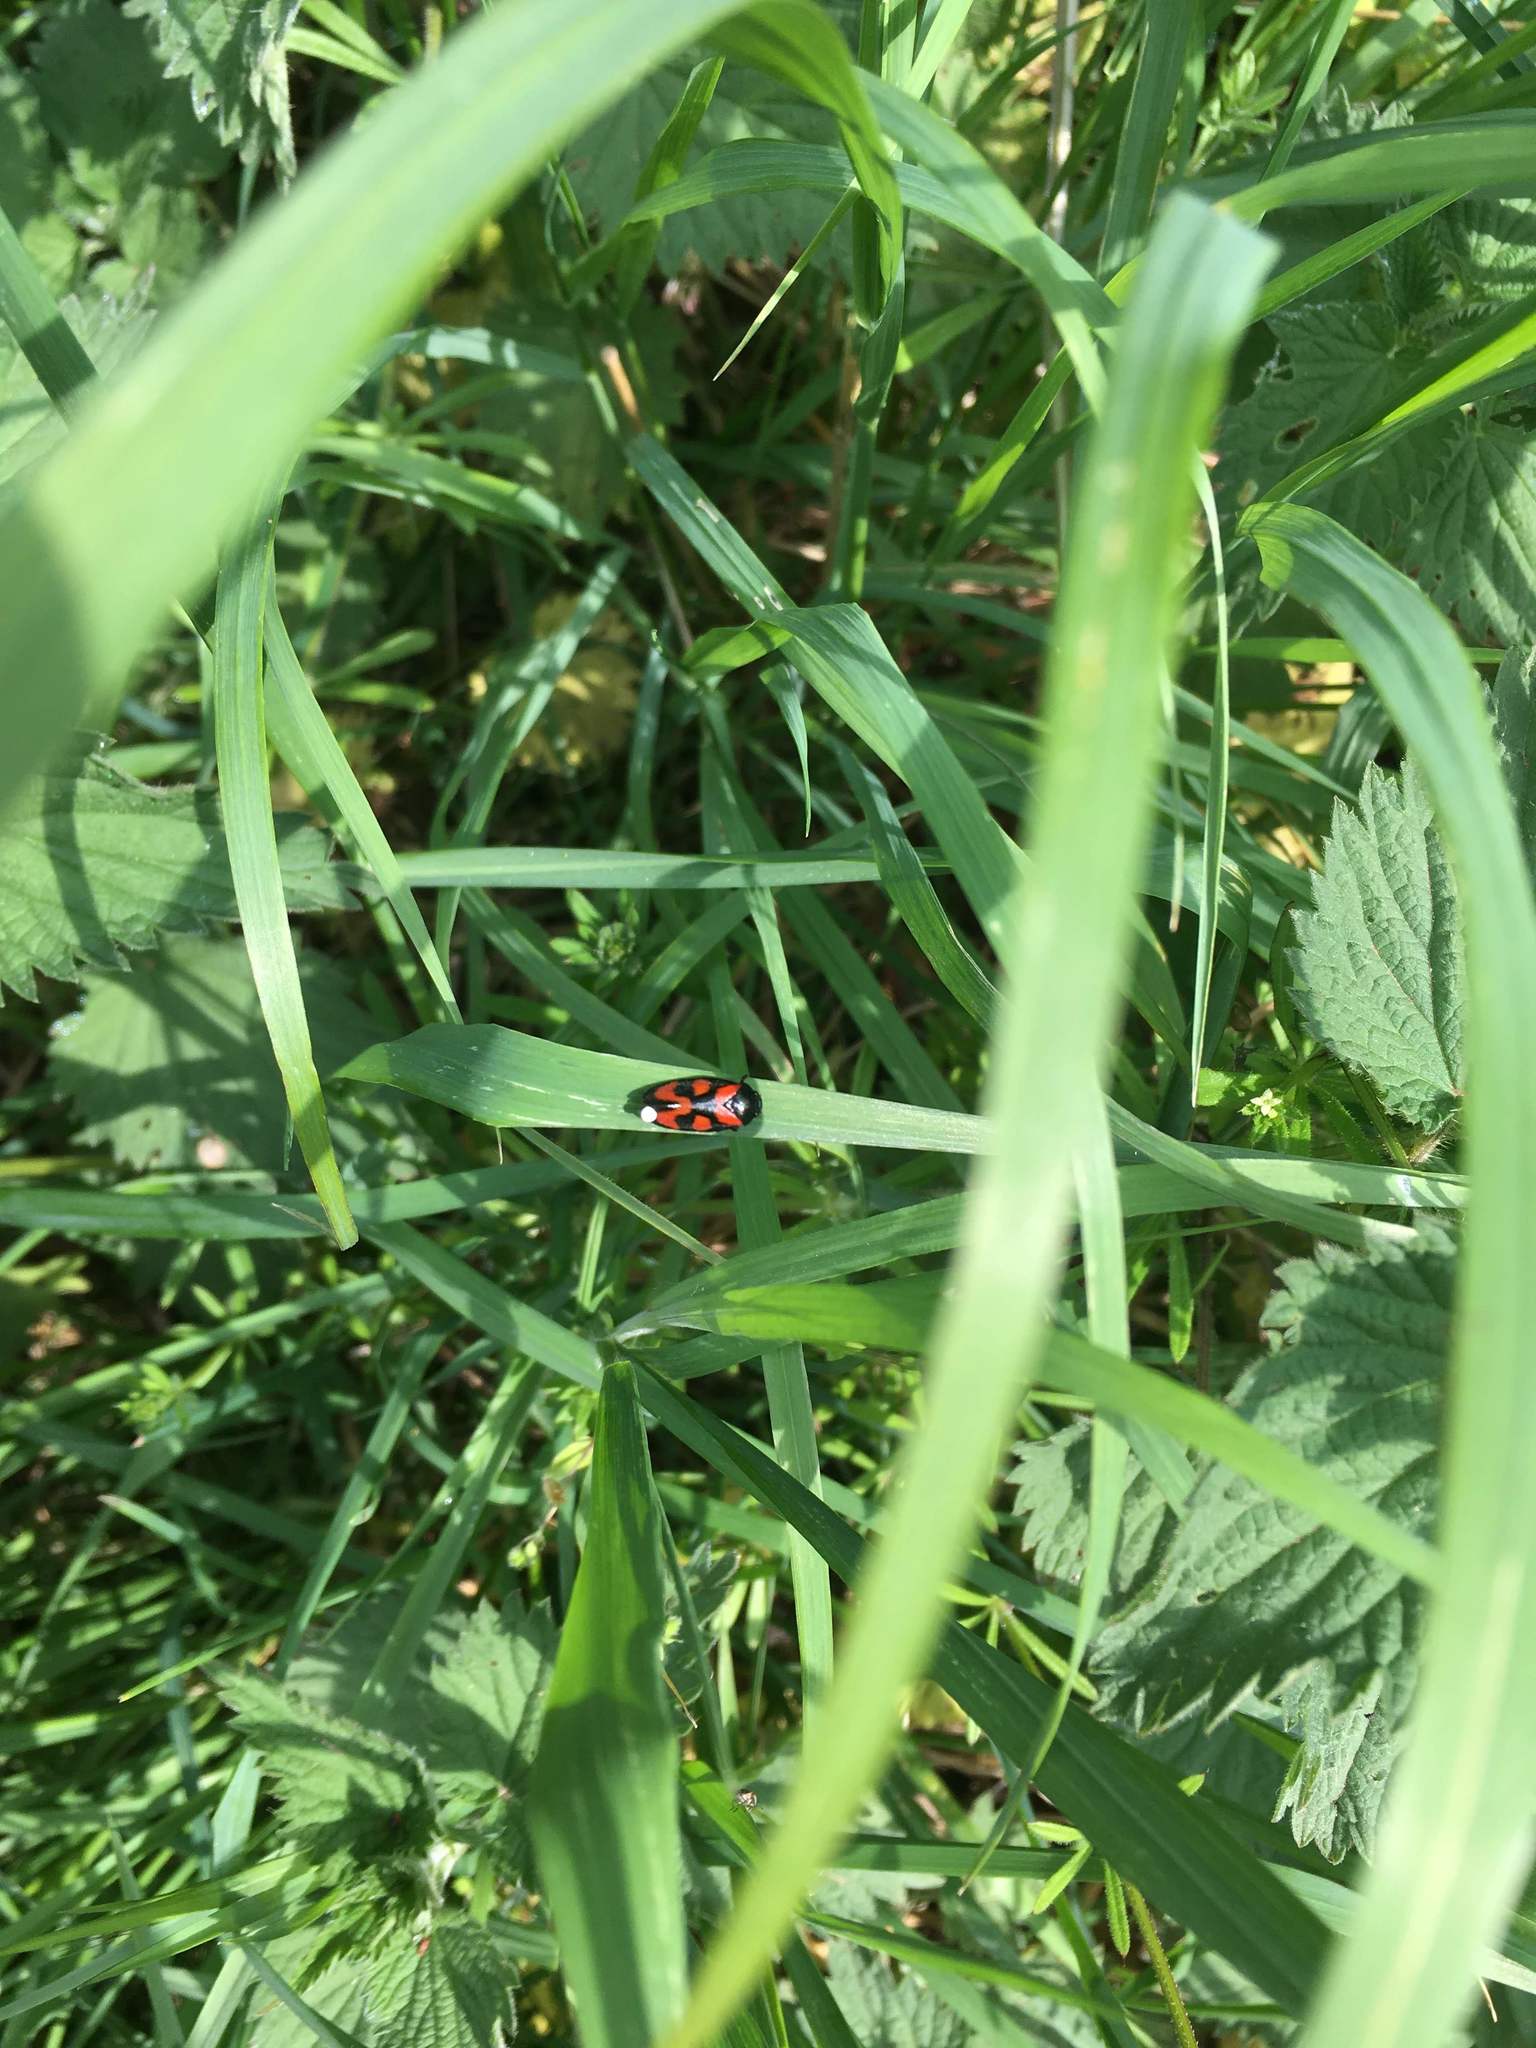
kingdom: Animalia
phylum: Arthropoda
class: Insecta
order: Hemiptera
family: Cercopidae
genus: Cercopis
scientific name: Cercopis vulnerata
